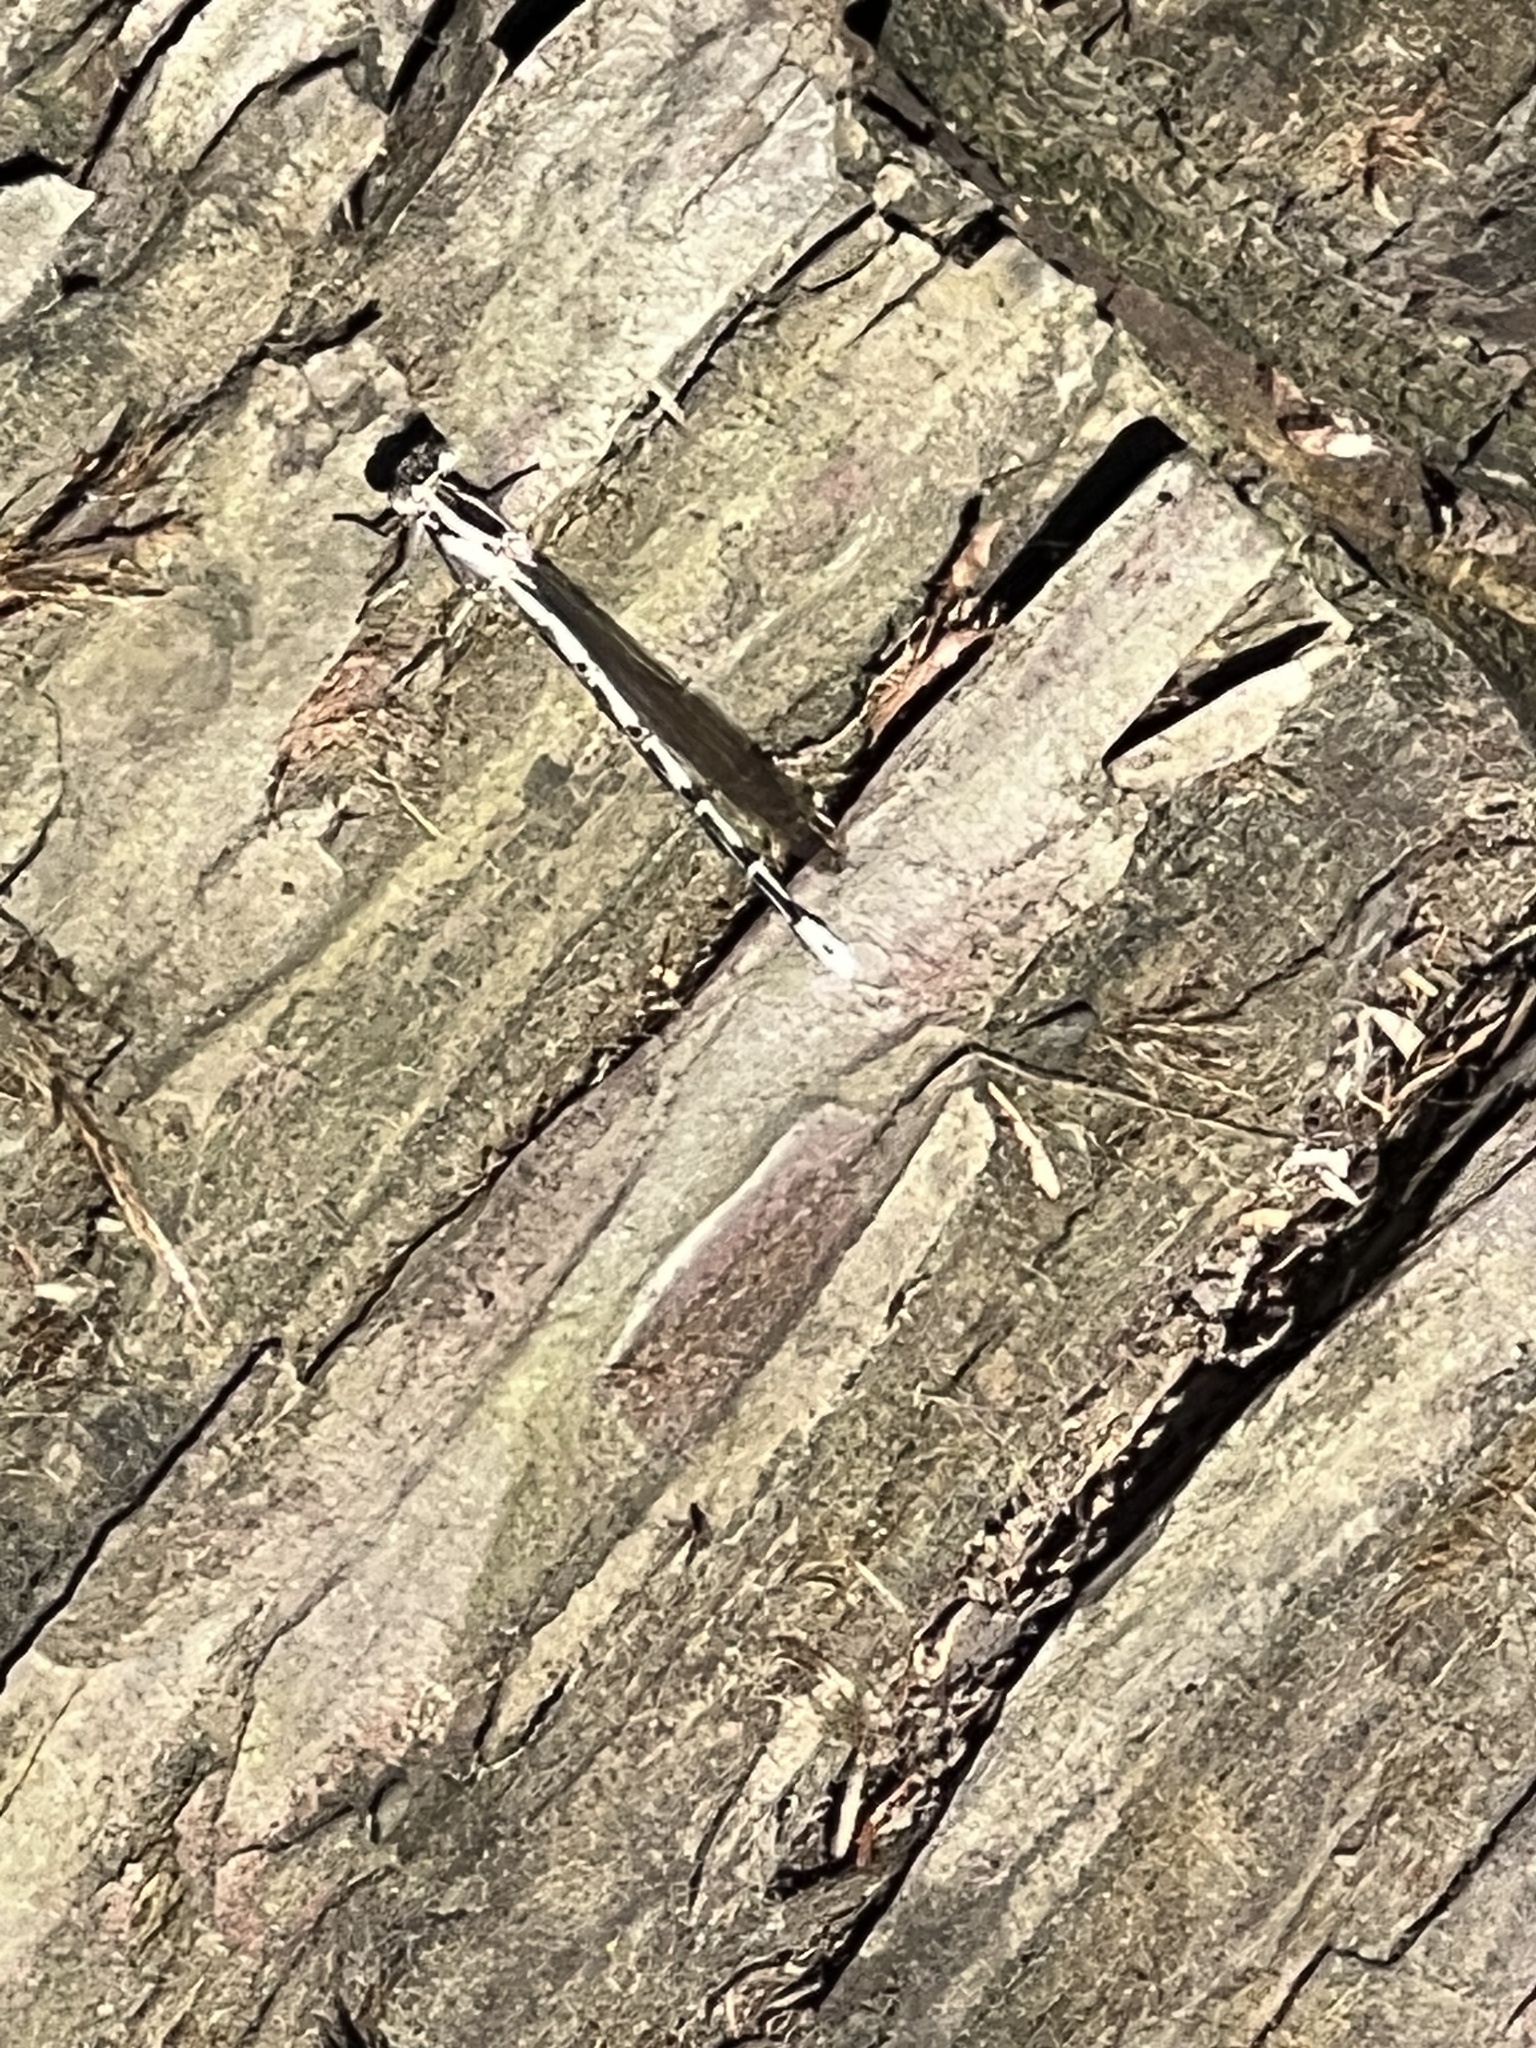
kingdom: Animalia
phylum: Arthropoda
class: Insecta
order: Odonata
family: Coenagrionidae
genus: Argia
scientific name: Argia vivida
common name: Vivid dancer
